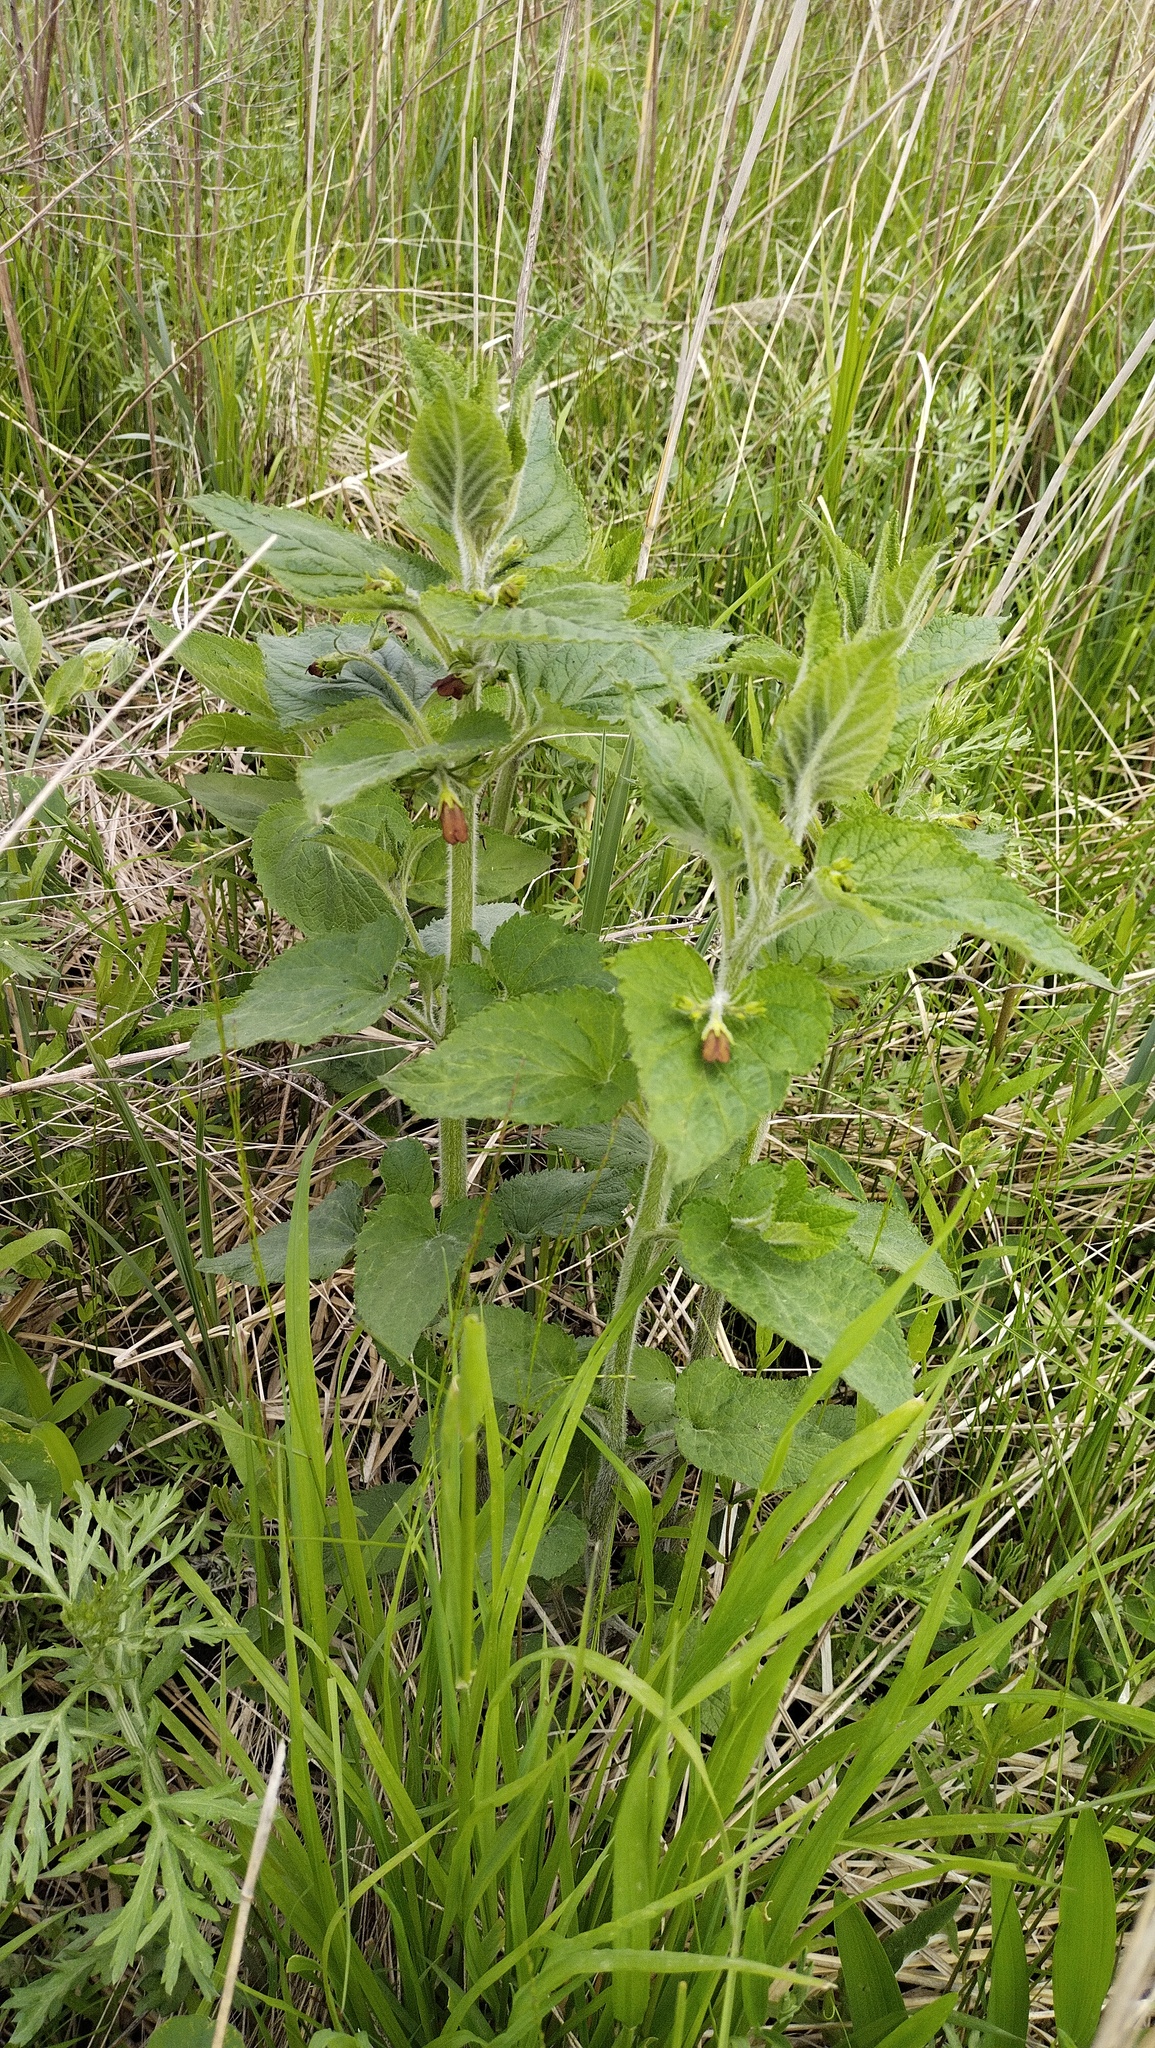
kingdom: Plantae
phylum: Tracheophyta
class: Magnoliopsida
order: Lamiales
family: Scrophulariaceae
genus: Scrophularia
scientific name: Scrophularia kakudensis
